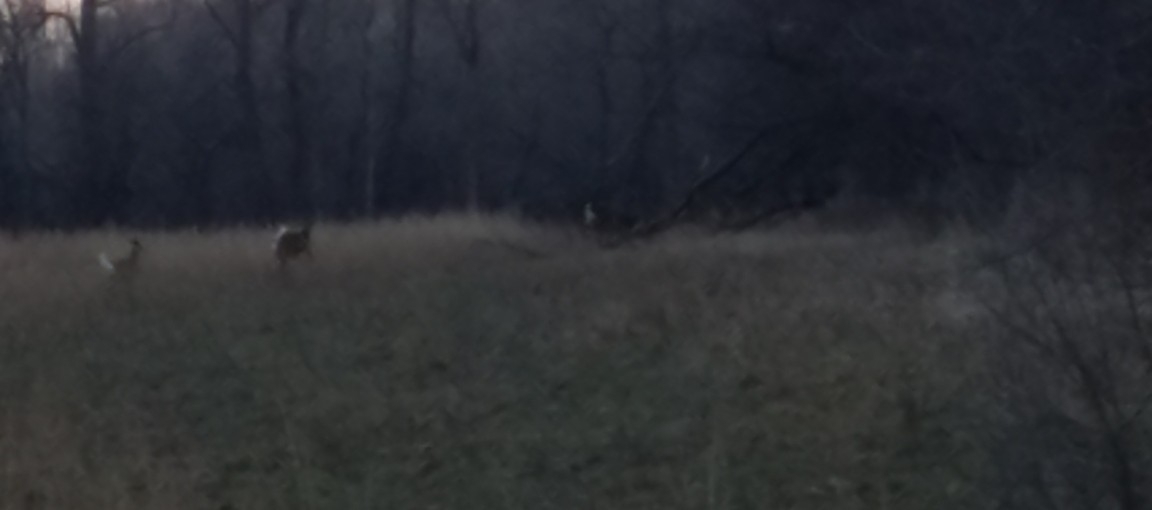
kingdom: Animalia
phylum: Chordata
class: Mammalia
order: Artiodactyla
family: Cervidae
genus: Odocoileus
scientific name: Odocoileus virginianus
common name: White-tailed deer
